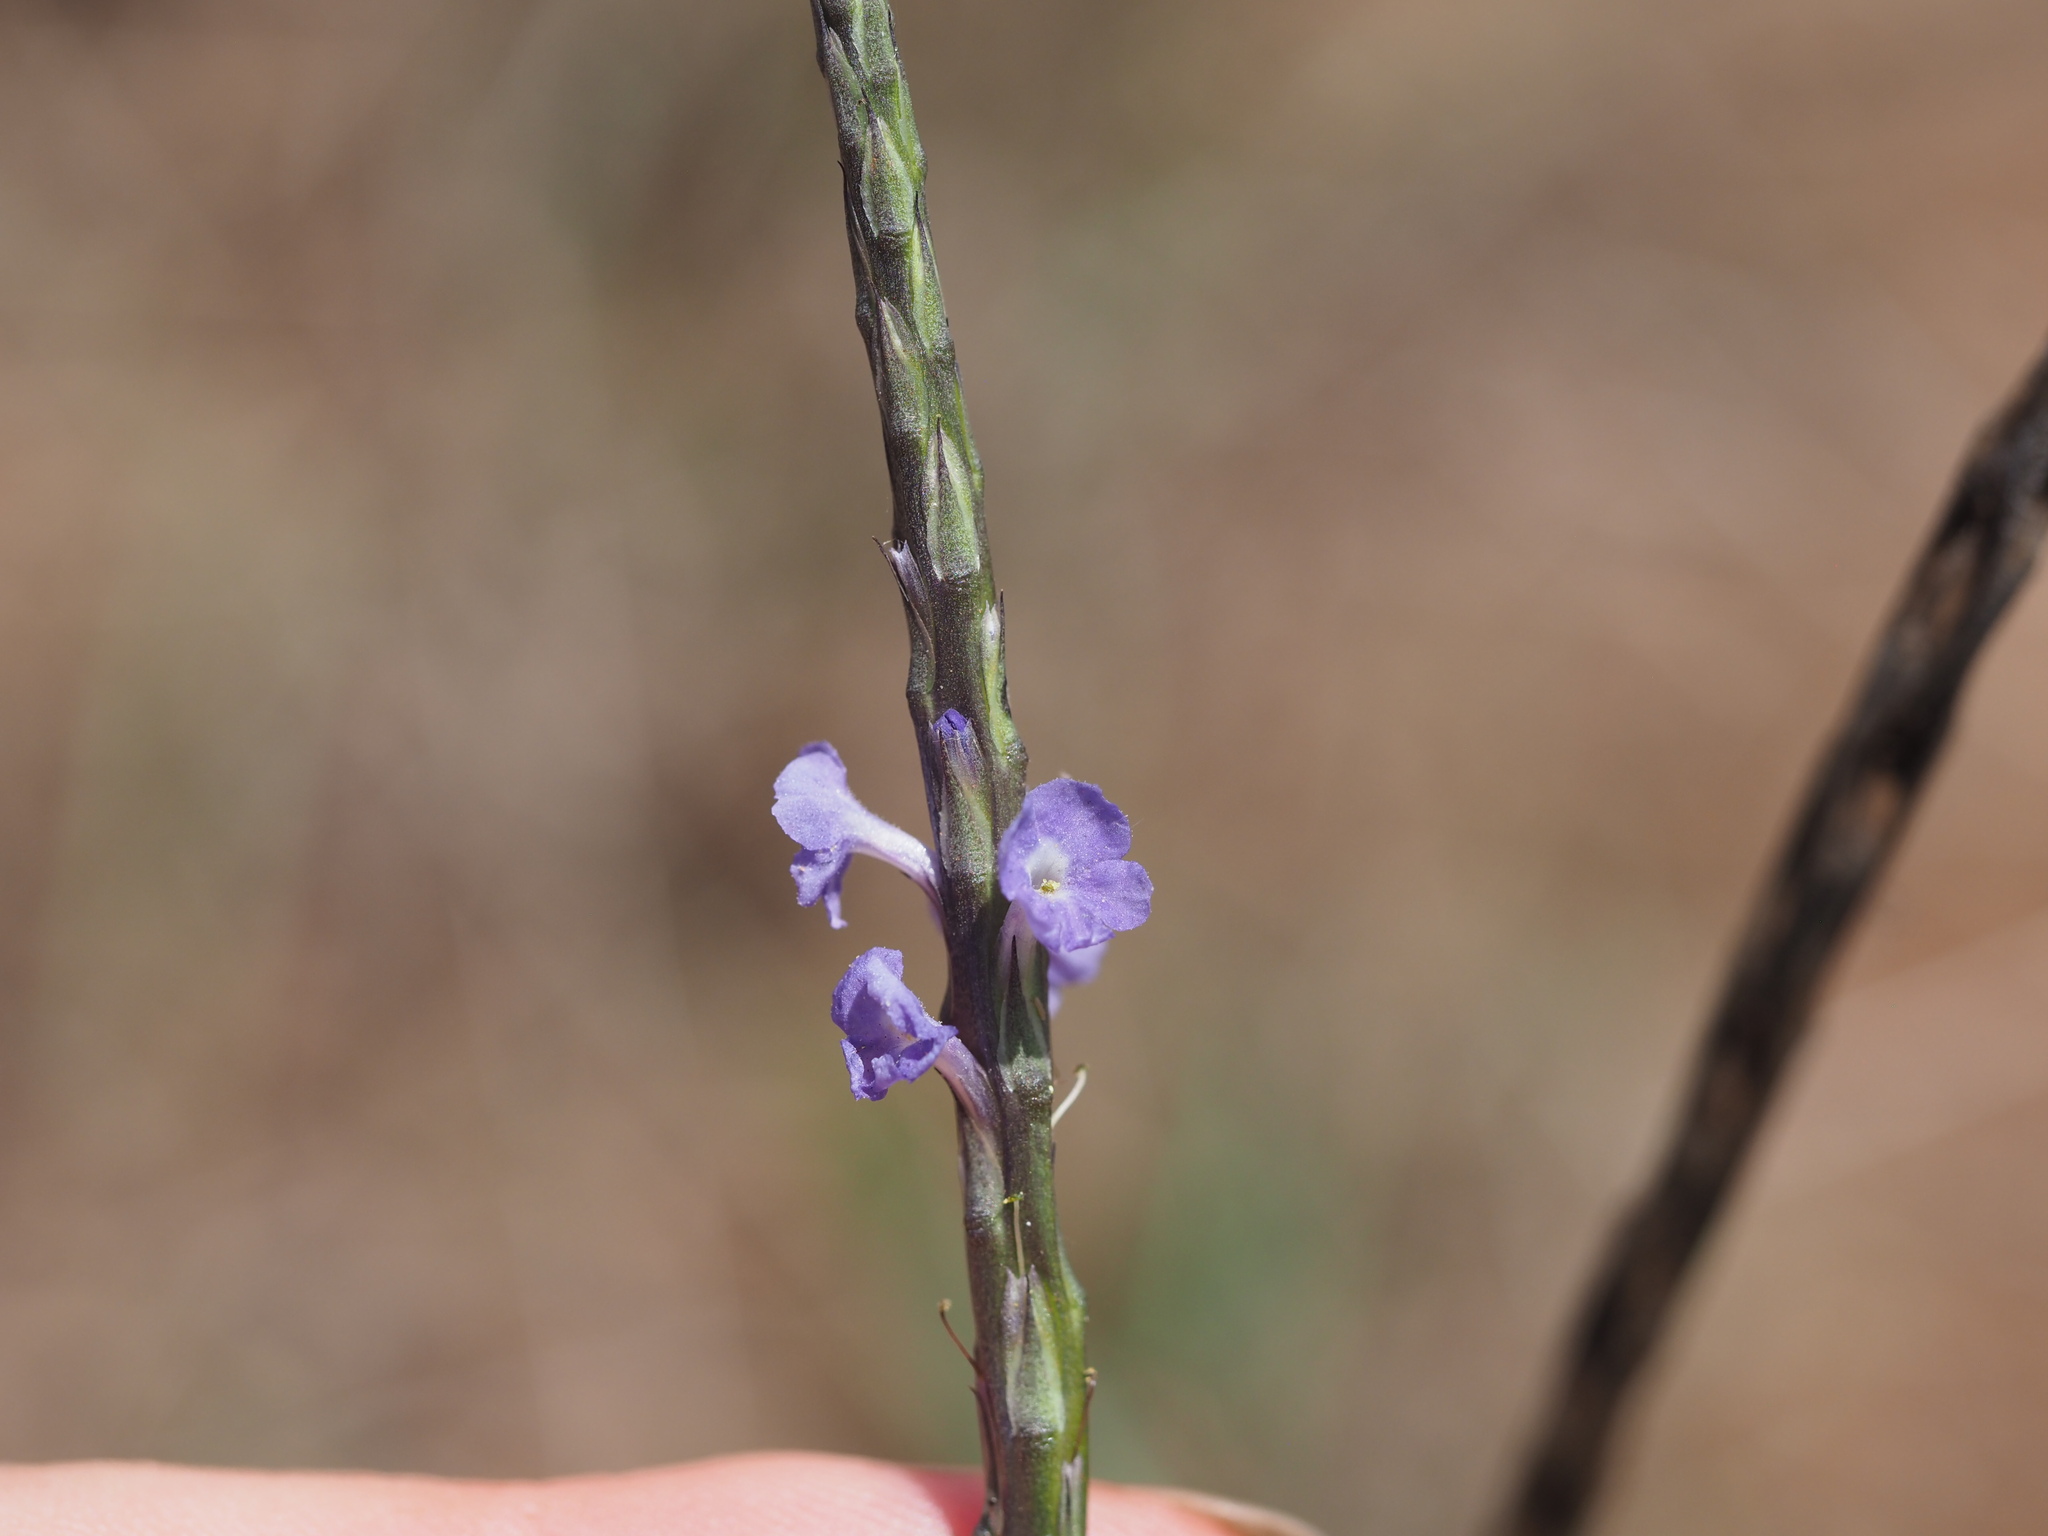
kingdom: Plantae
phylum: Tracheophyta
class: Magnoliopsida
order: Lamiales
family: Verbenaceae
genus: Stachytarpheta
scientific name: Stachytarpheta jamaicensis
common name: Light-blue snakeweed
